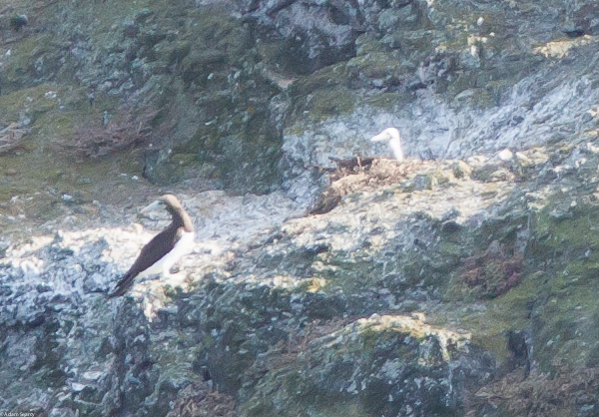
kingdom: Animalia
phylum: Chordata
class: Aves
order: Suliformes
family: Sulidae
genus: Sula
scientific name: Sula leucogaster
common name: Brown booby
